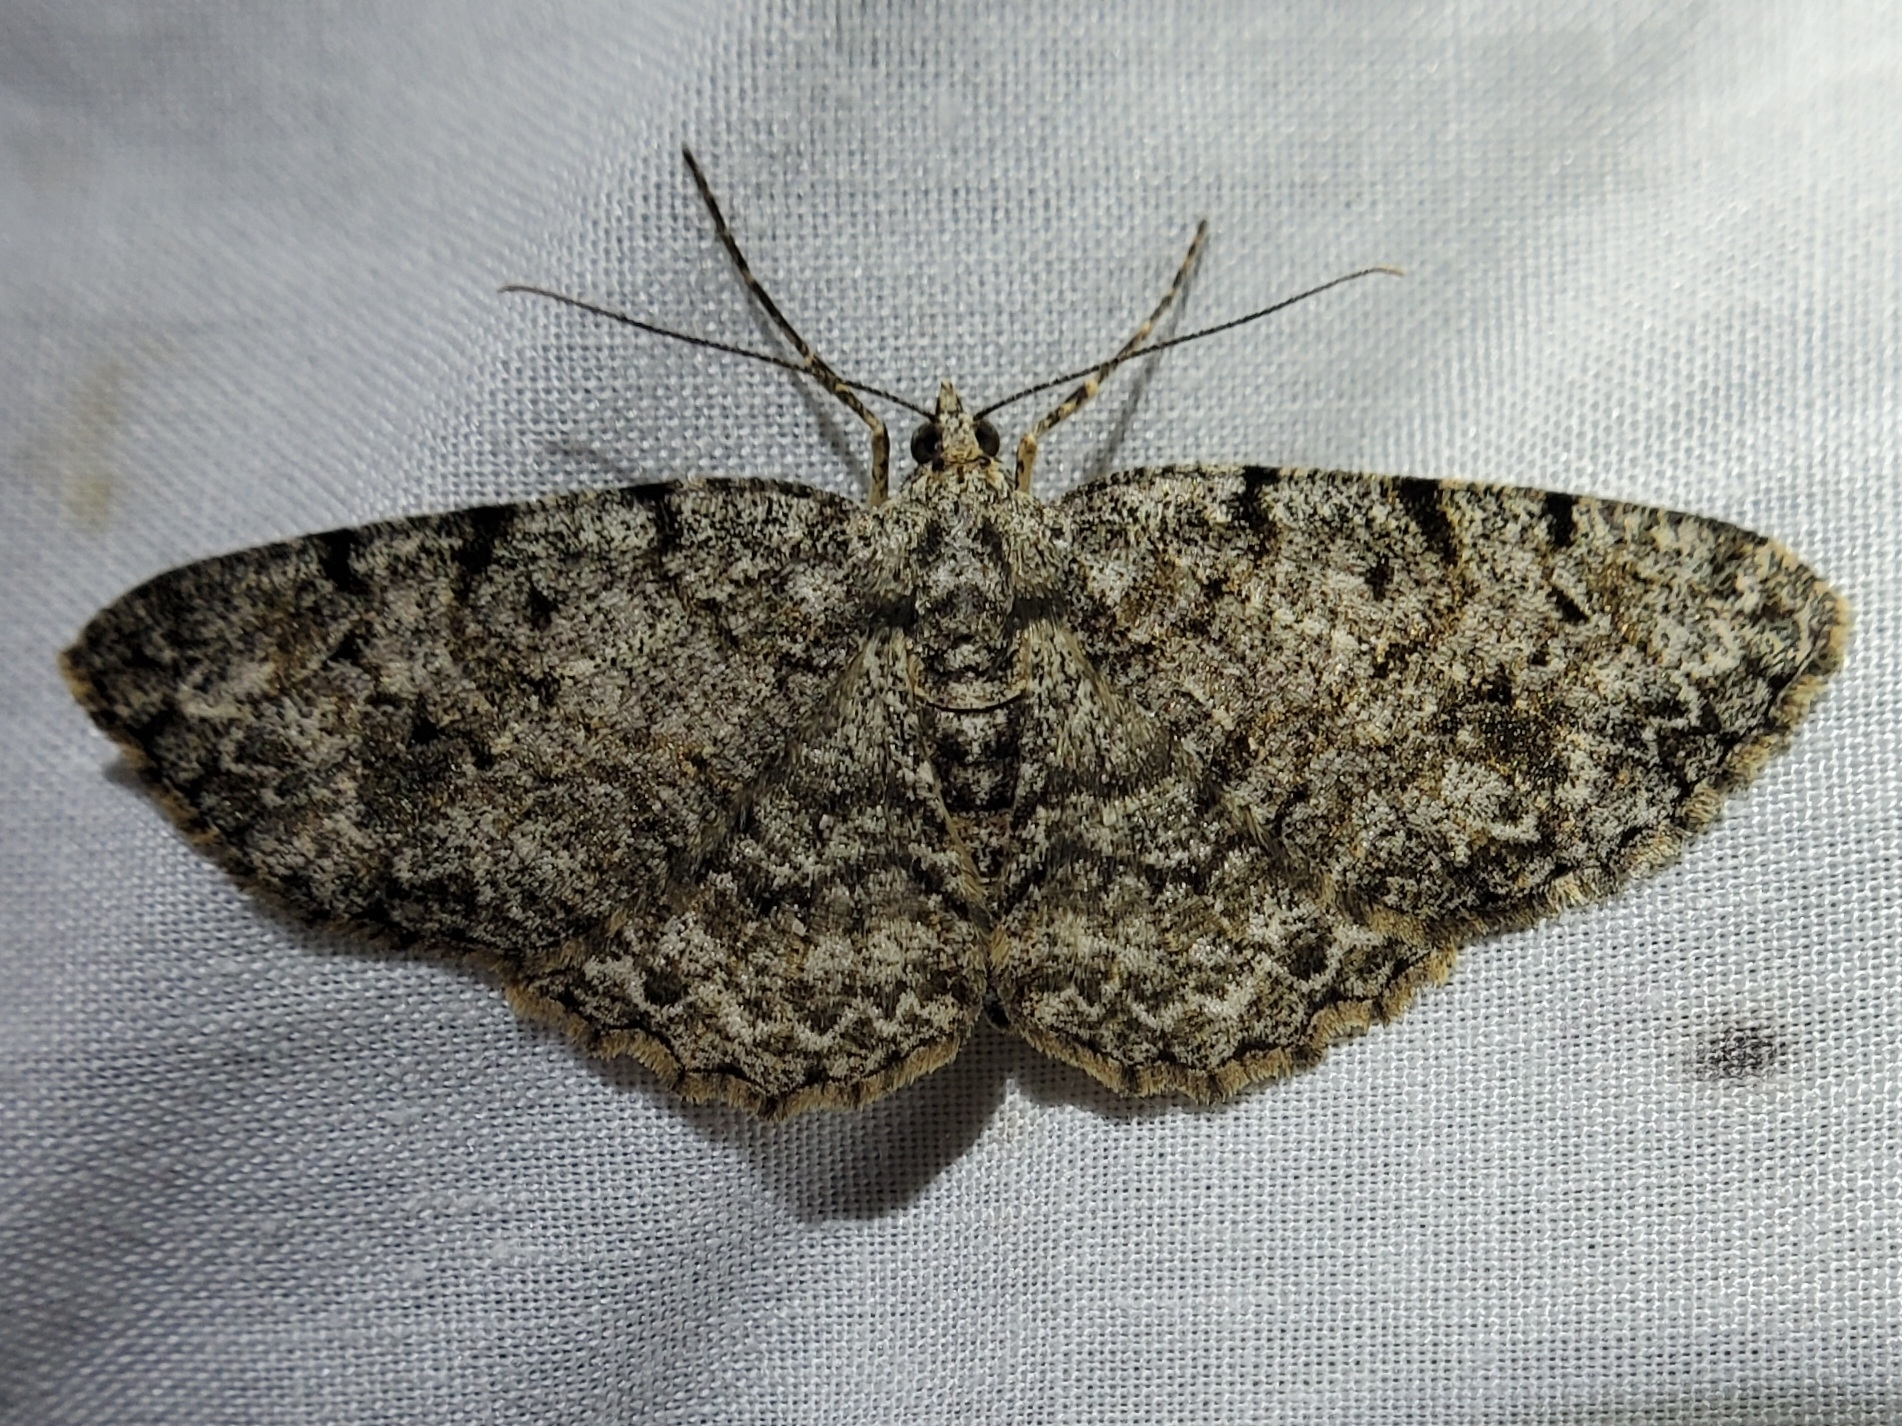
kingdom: Animalia
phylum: Arthropoda
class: Insecta
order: Lepidoptera
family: Geometridae
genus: Protoboarmia
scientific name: Protoboarmia porcelaria
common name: Porcelain gray
